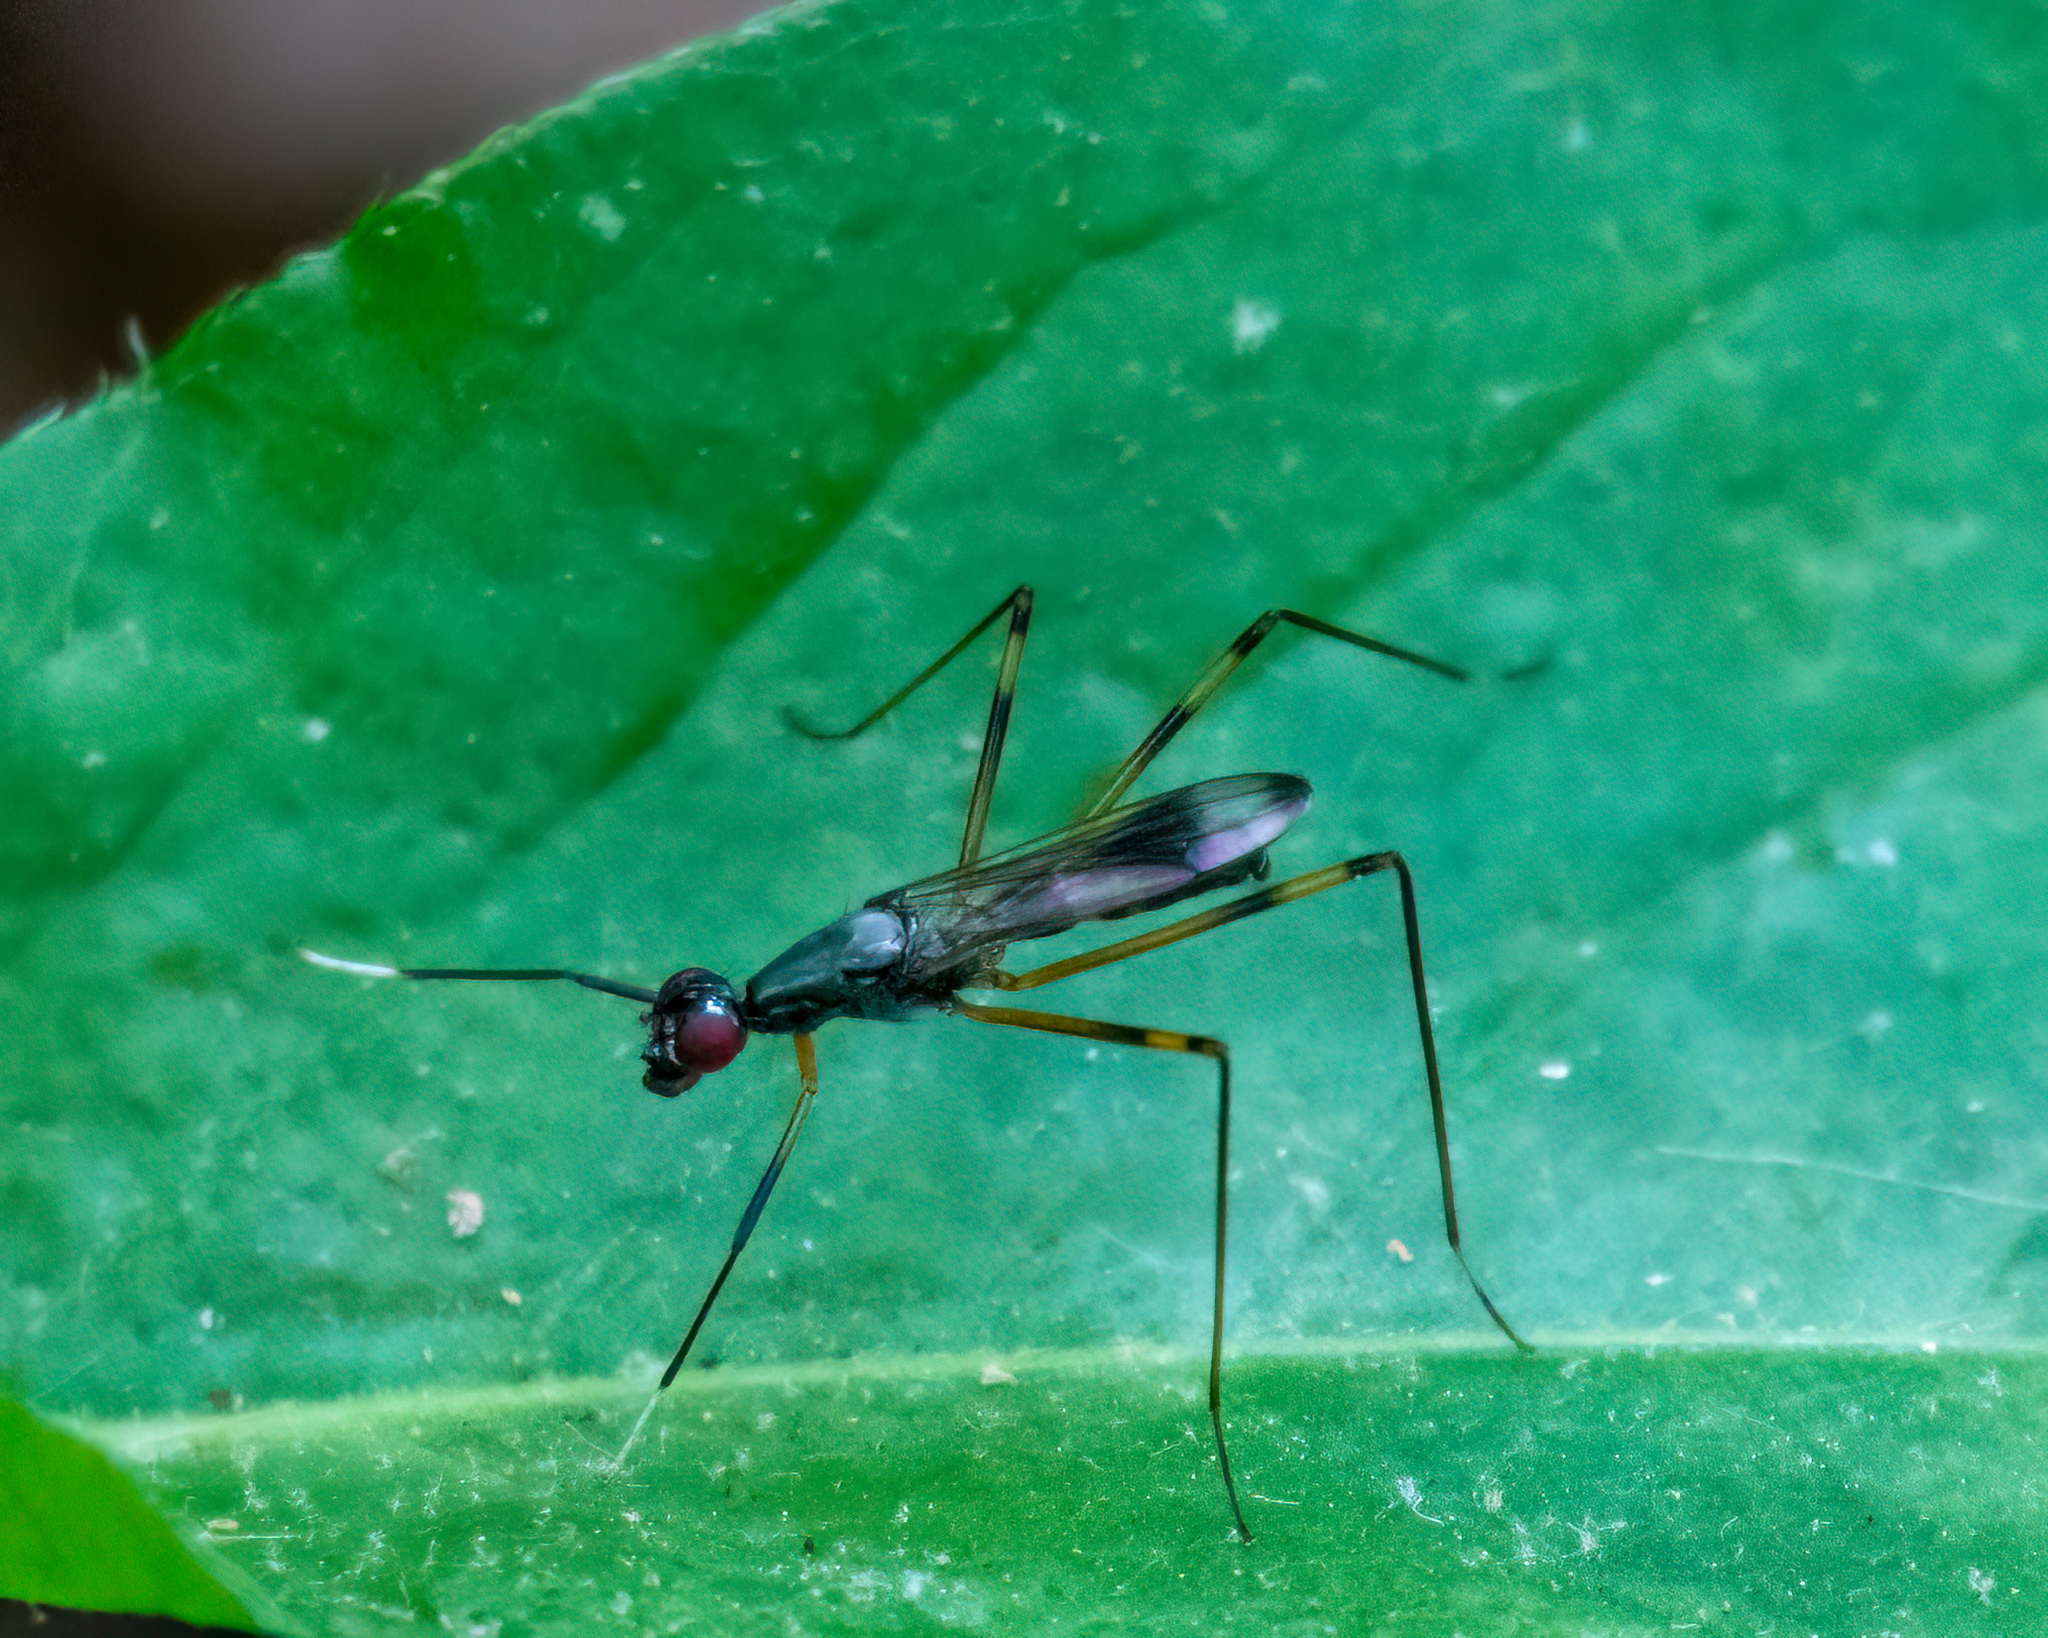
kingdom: Animalia
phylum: Arthropoda
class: Insecta
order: Diptera
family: Micropezidae
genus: Rainieria
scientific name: Rainieria antennaepes
